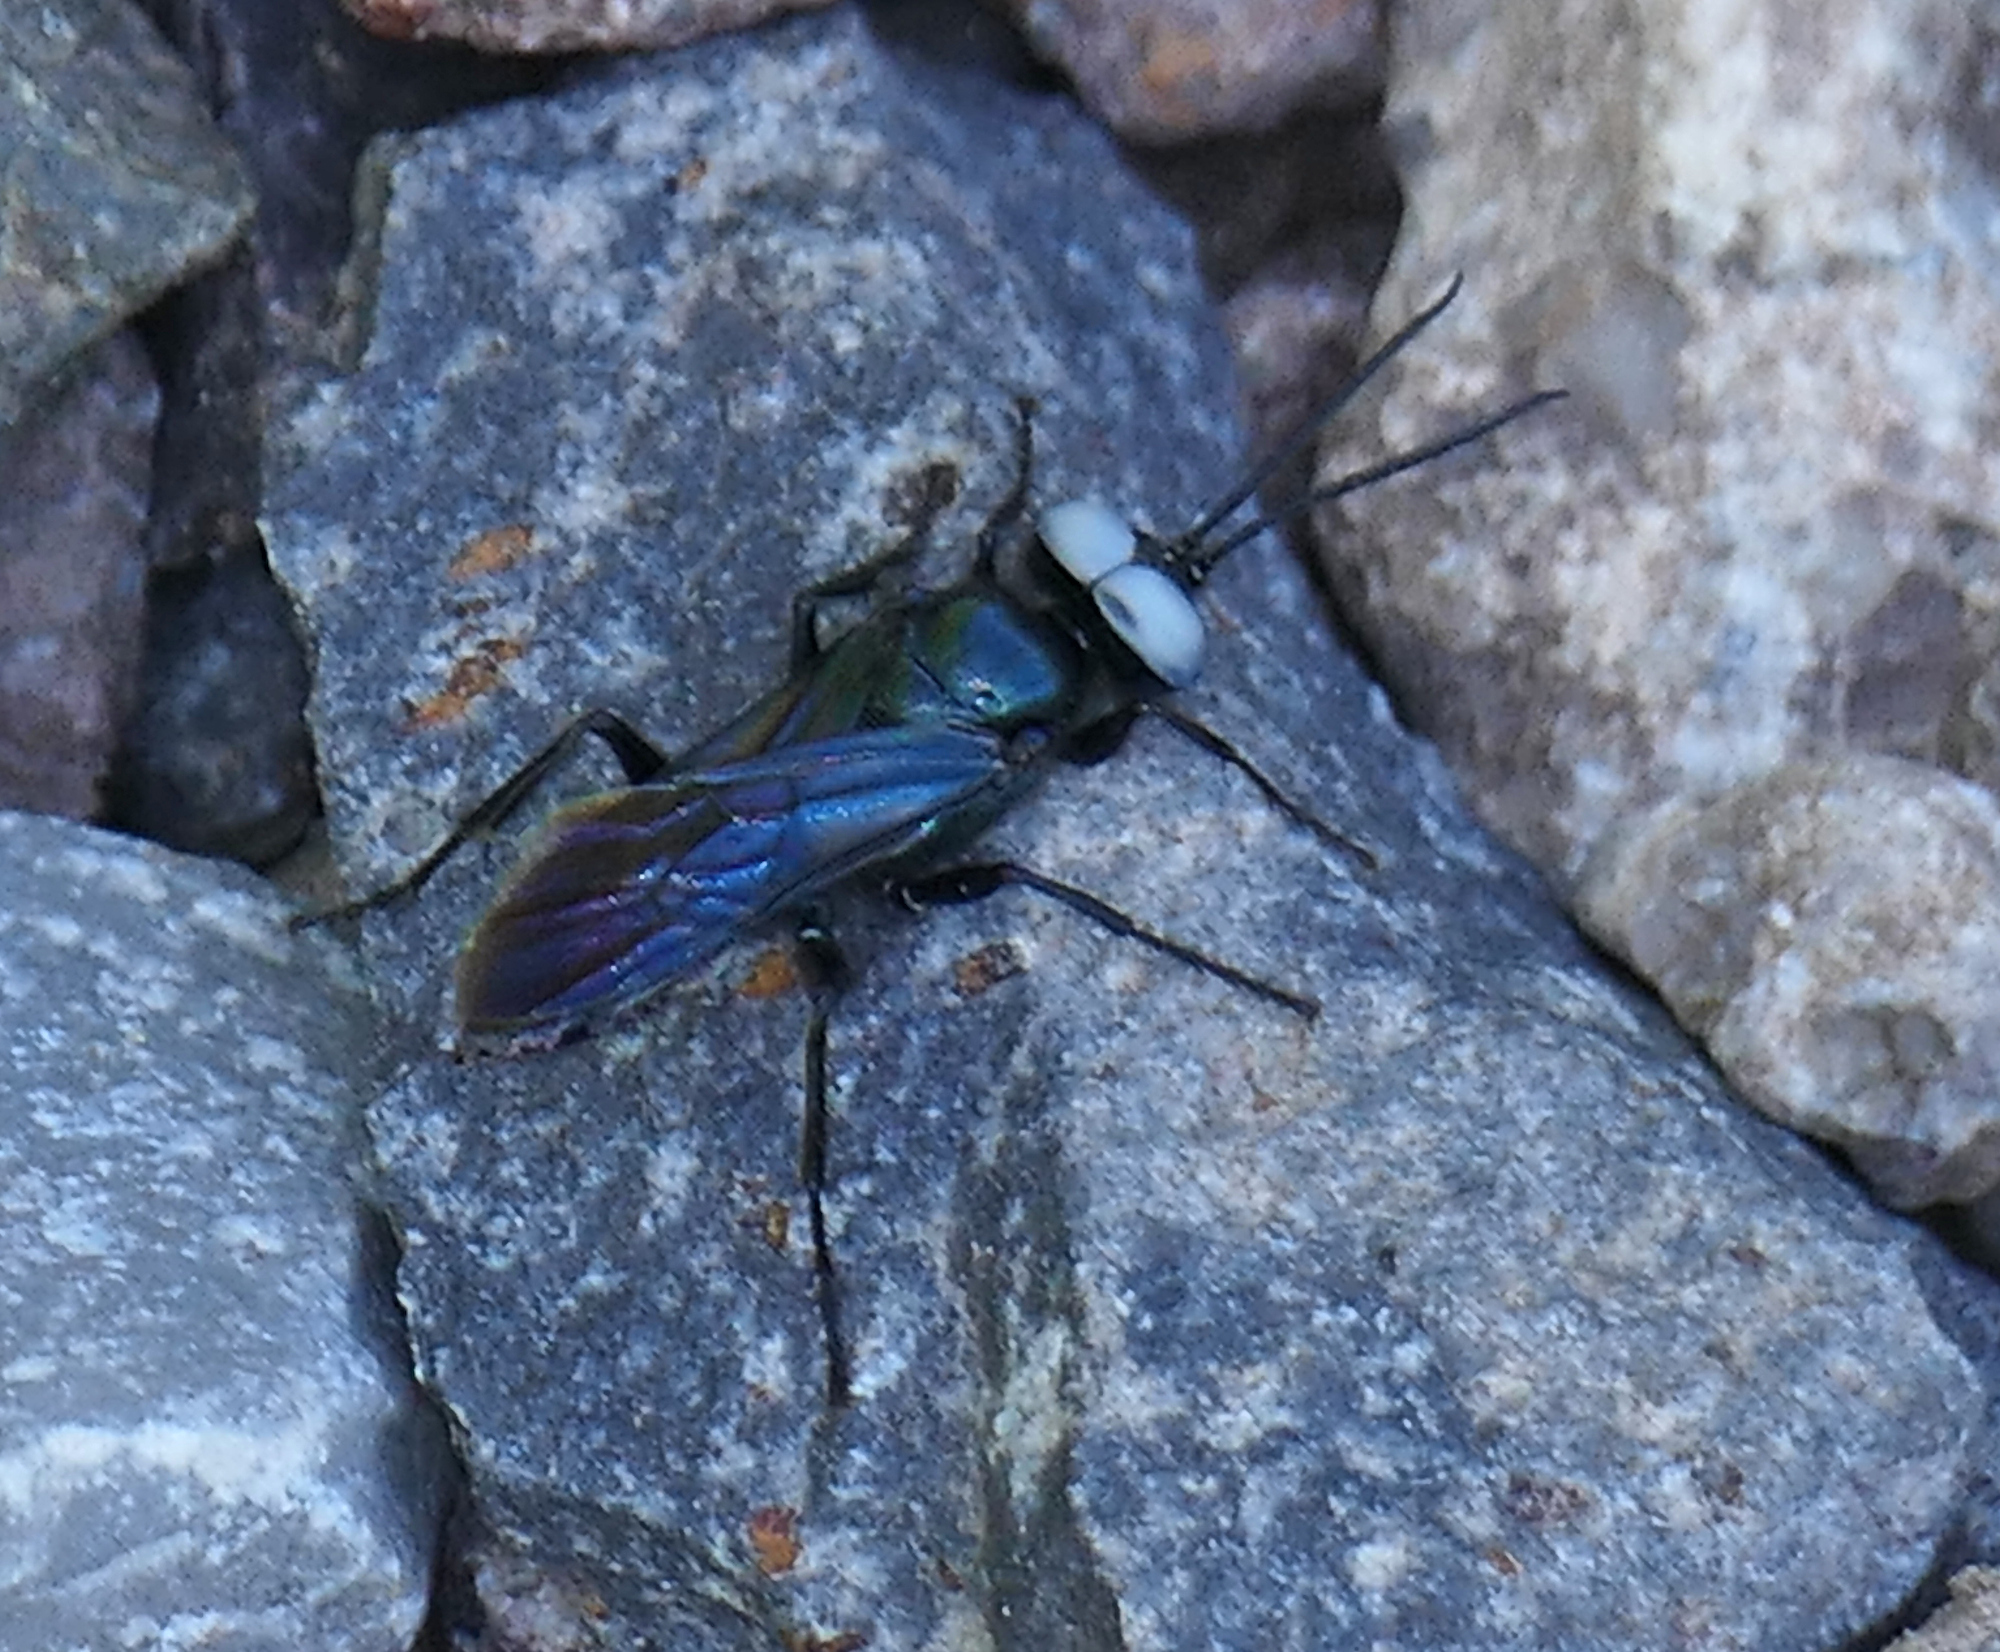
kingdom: Animalia
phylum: Arthropoda
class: Insecta
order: Hymenoptera
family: Crabronidae
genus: Dryudella
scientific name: Dryudella caerulea
